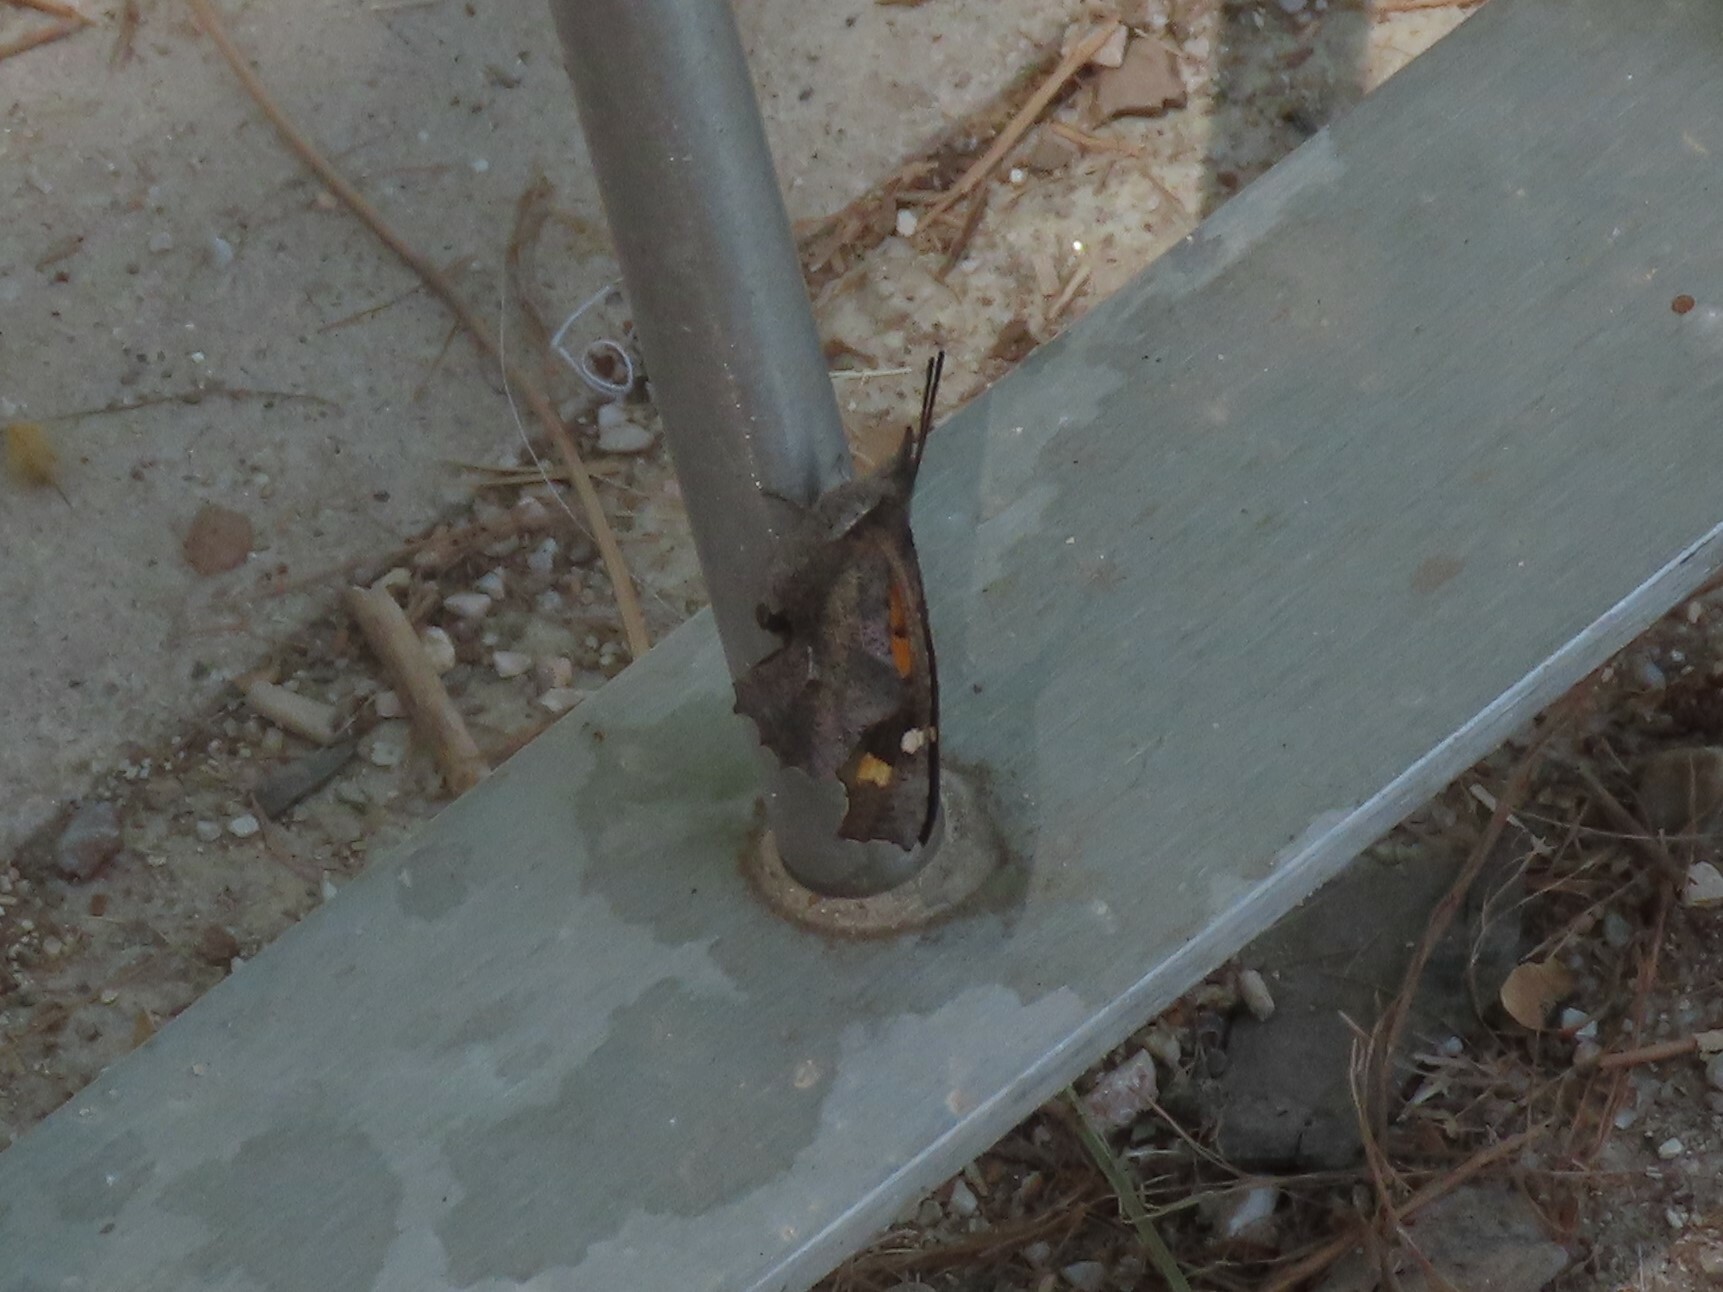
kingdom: Animalia
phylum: Arthropoda
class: Insecta
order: Lepidoptera
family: Nymphalidae
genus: Libythea
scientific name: Libythea celtis
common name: Nettle-tree butterfly
